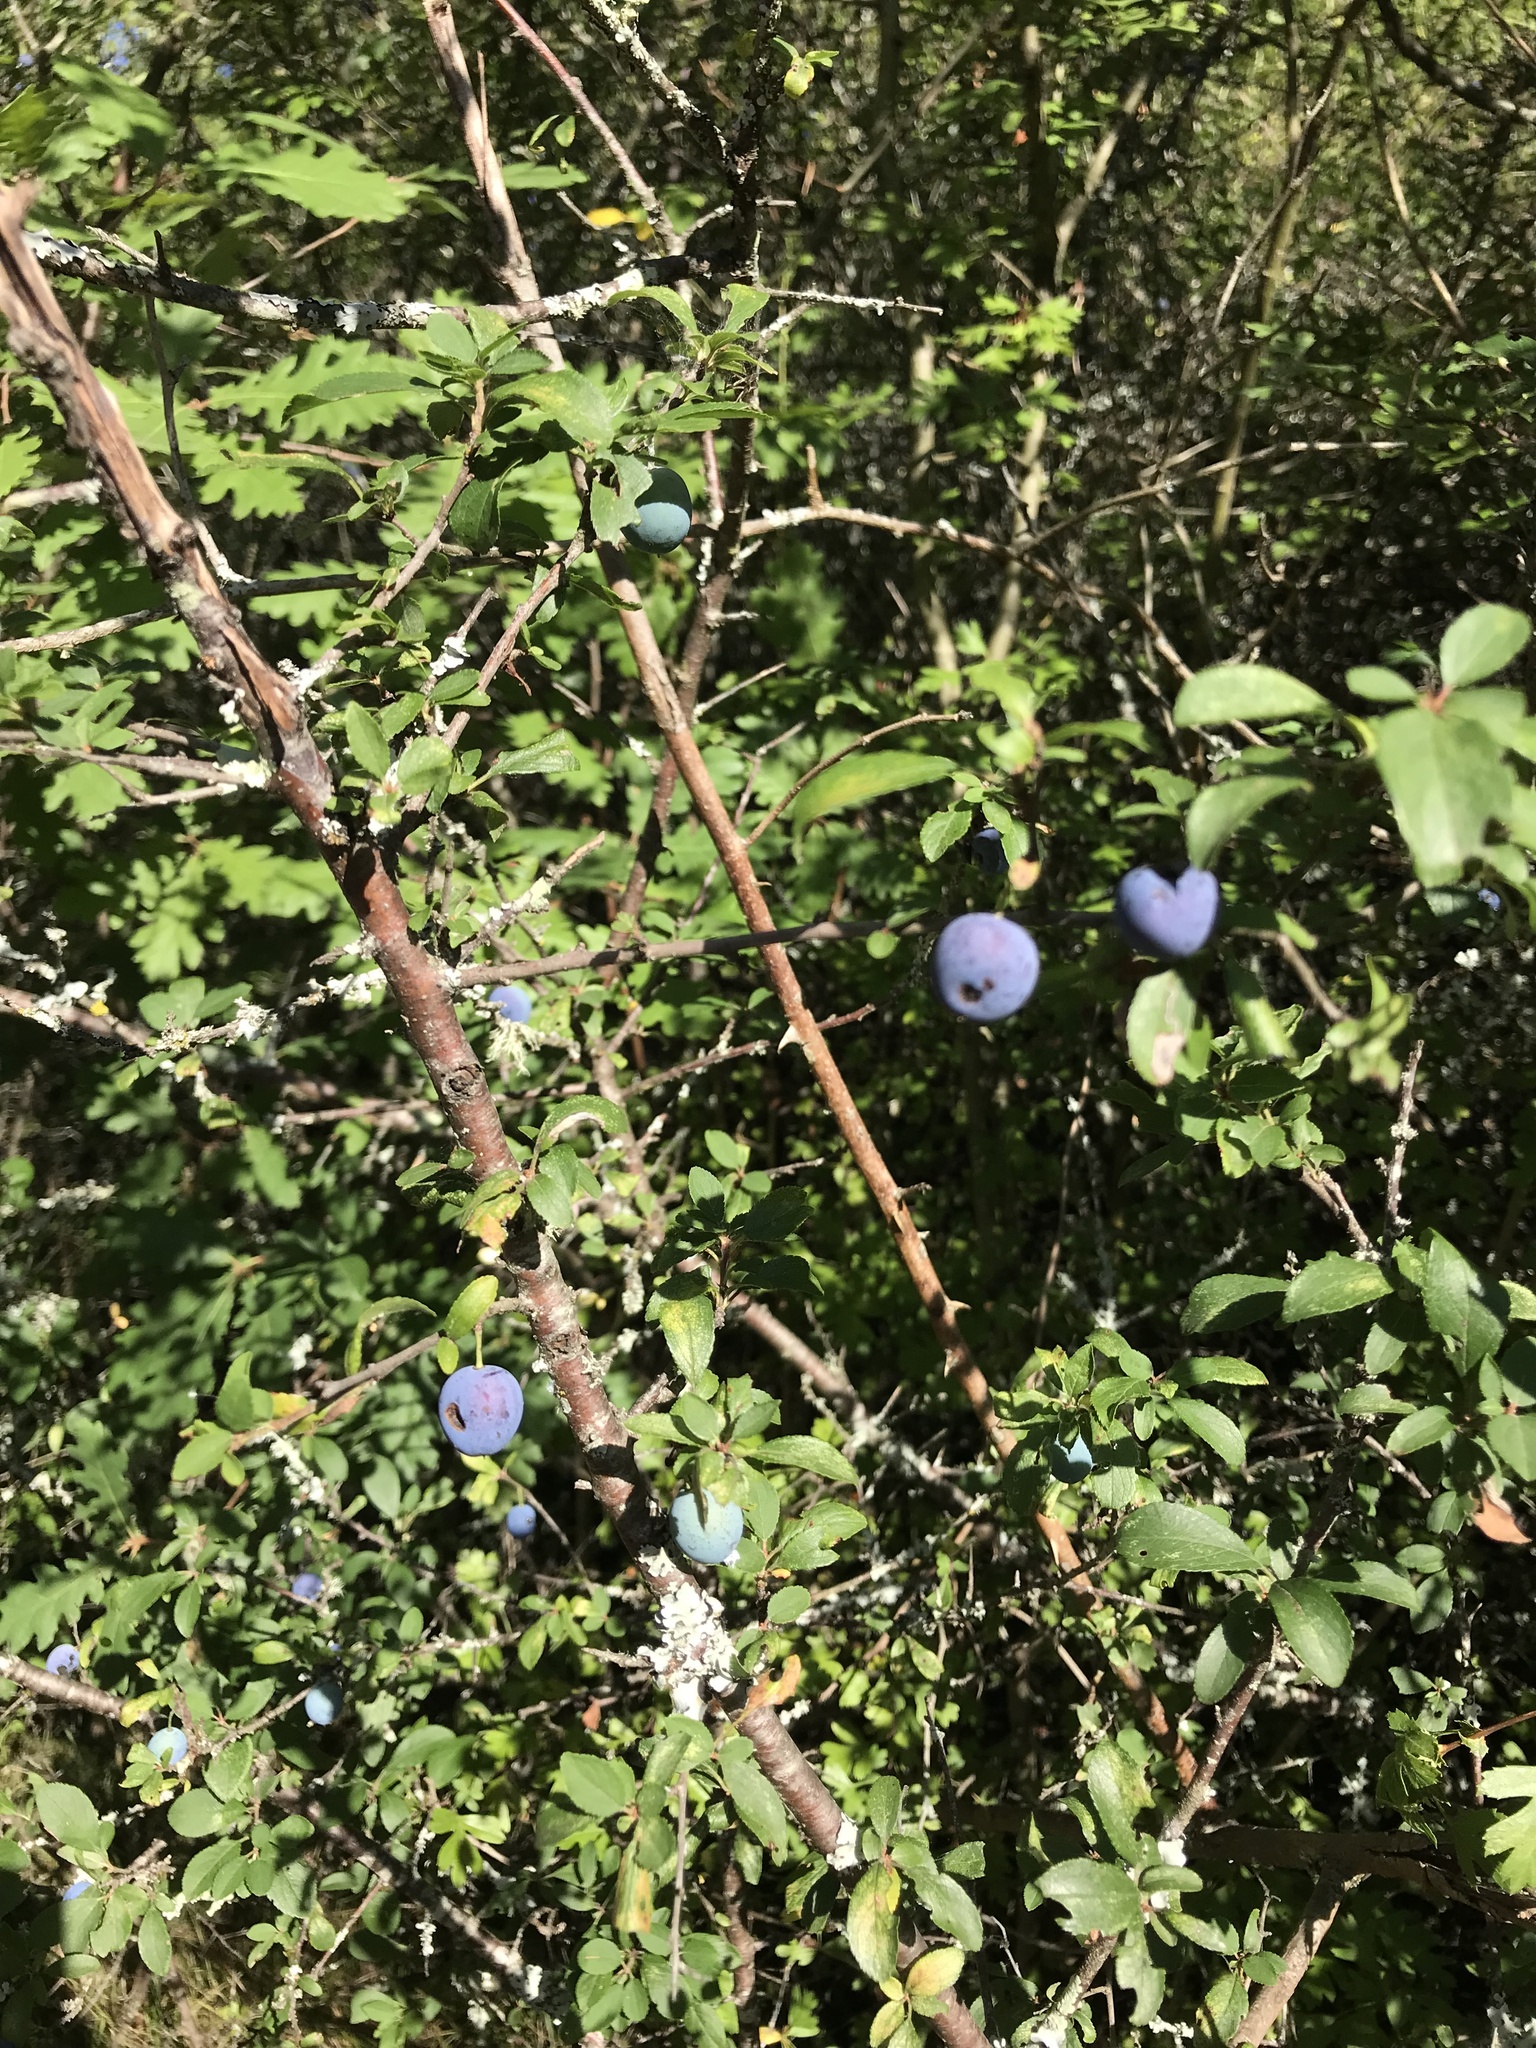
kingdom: Plantae
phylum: Tracheophyta
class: Magnoliopsida
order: Rosales
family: Rosaceae
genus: Prunus
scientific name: Prunus spinosa
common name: Blackthorn
